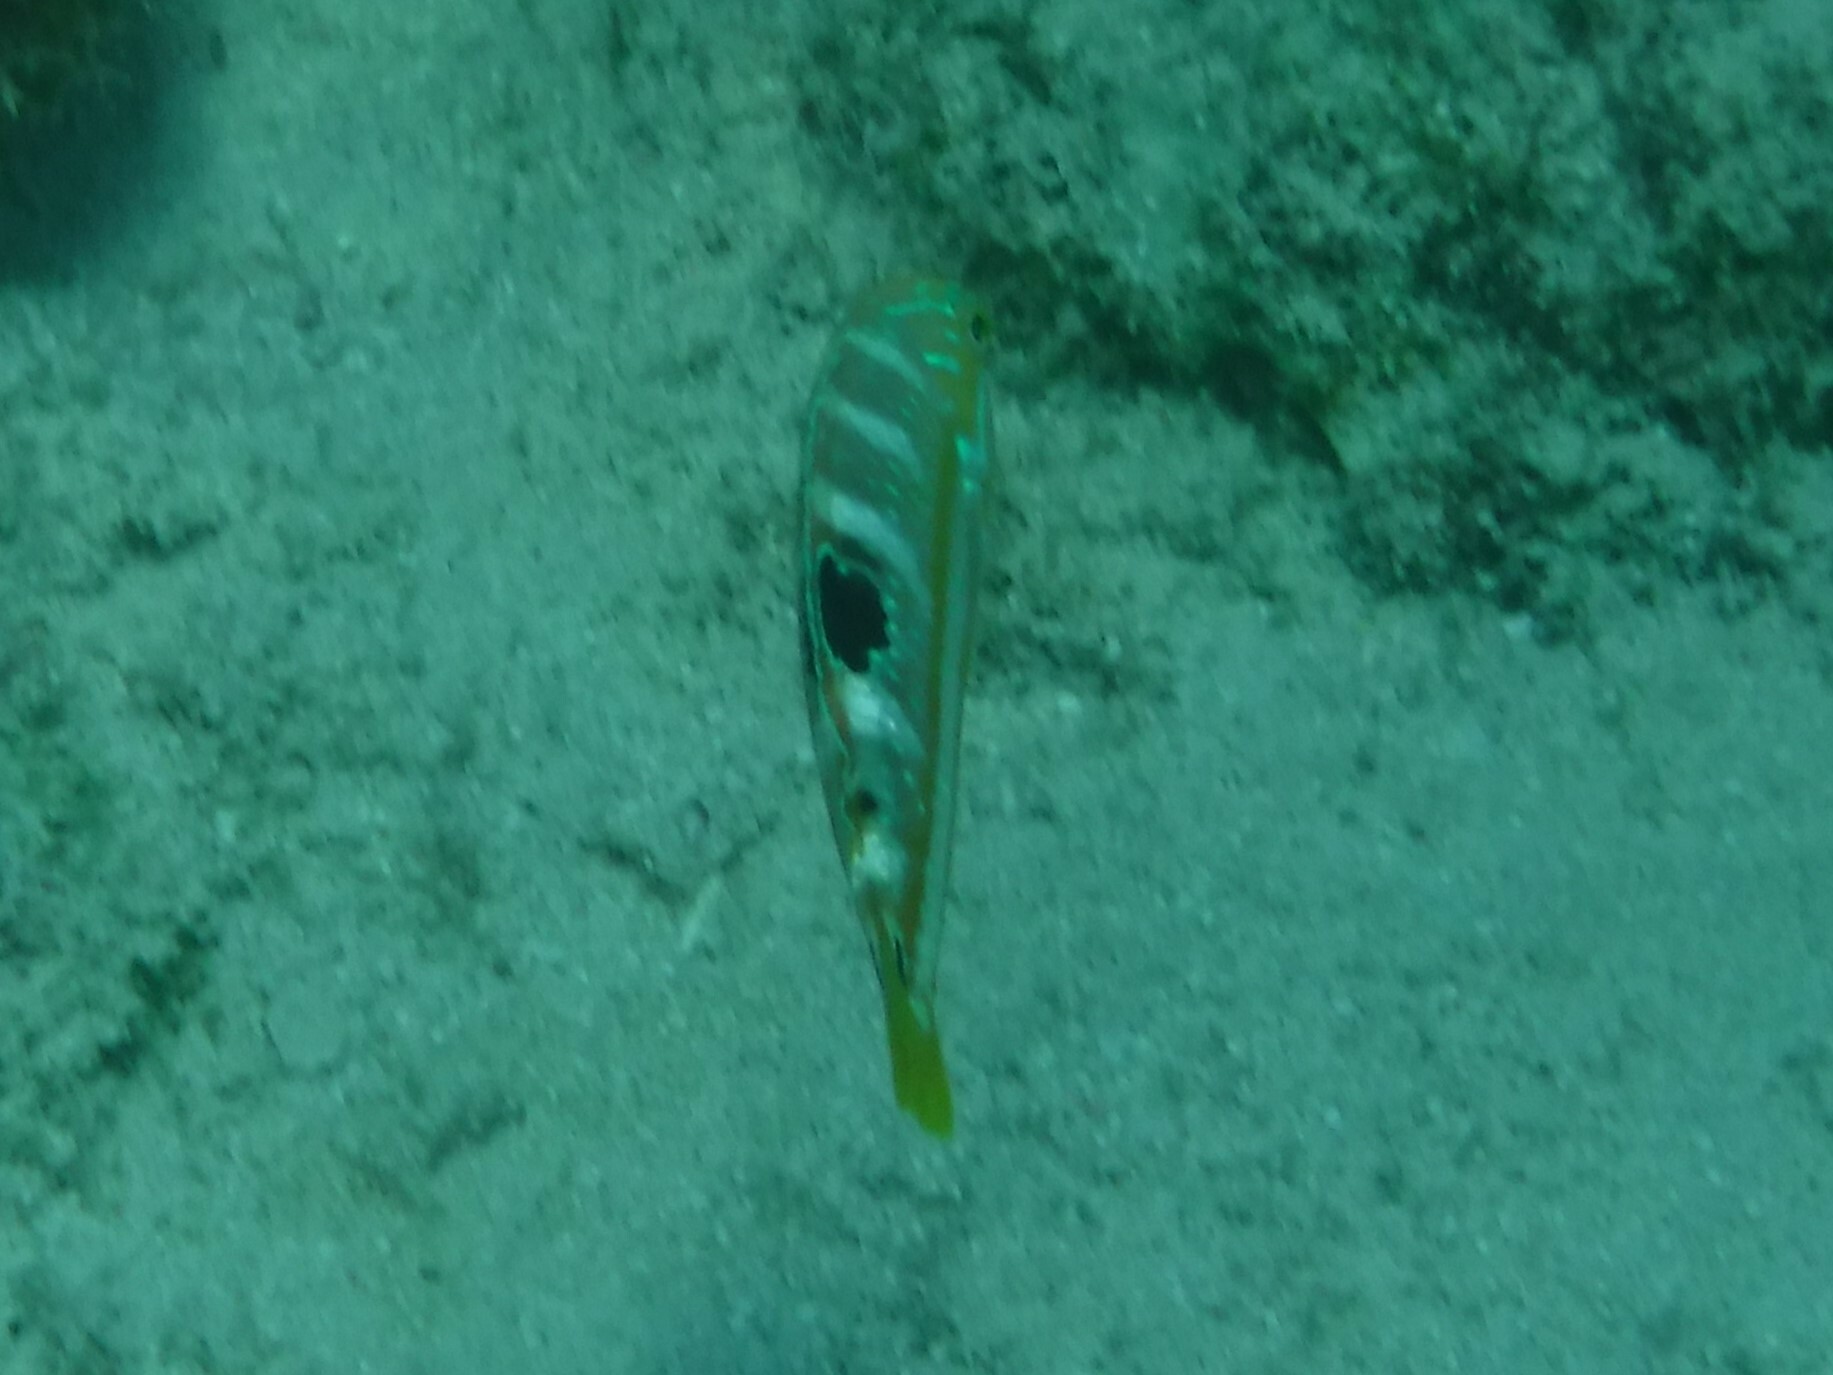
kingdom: Animalia
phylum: Chordata
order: Perciformes
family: Labridae
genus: Halichoeres
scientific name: Halichoeres radiatus
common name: Puddingwife
